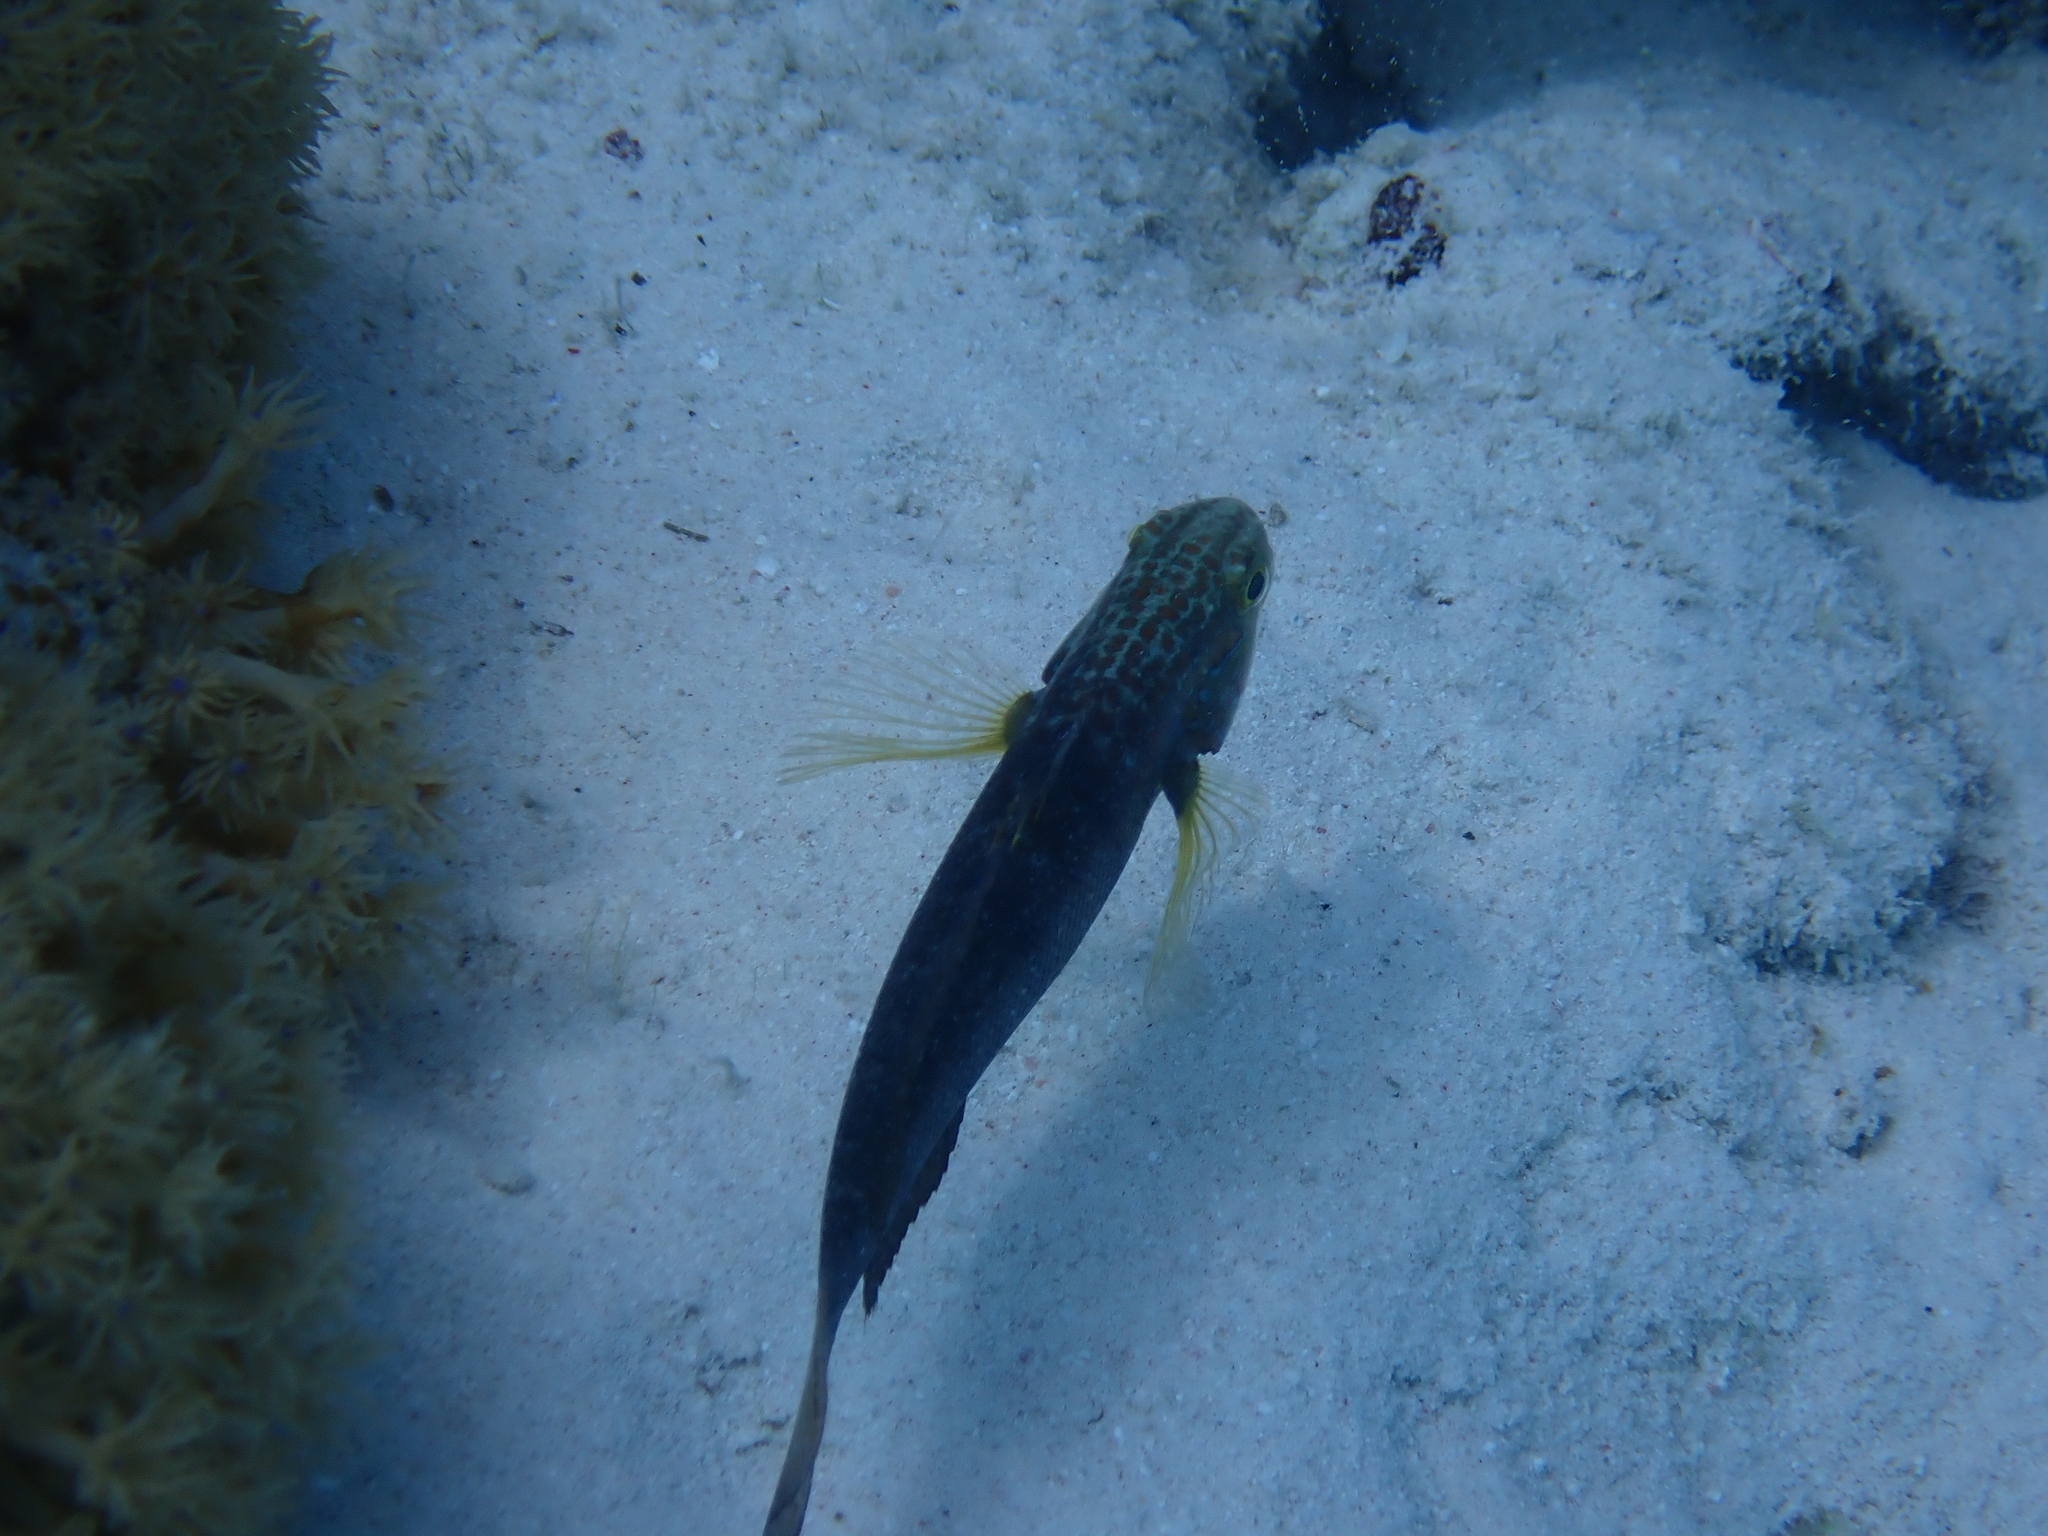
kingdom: Animalia
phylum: Chordata
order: Perciformes
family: Gobiidae
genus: Amblygobius
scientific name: Amblygobius albimaculatus
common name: Butterfly goby
